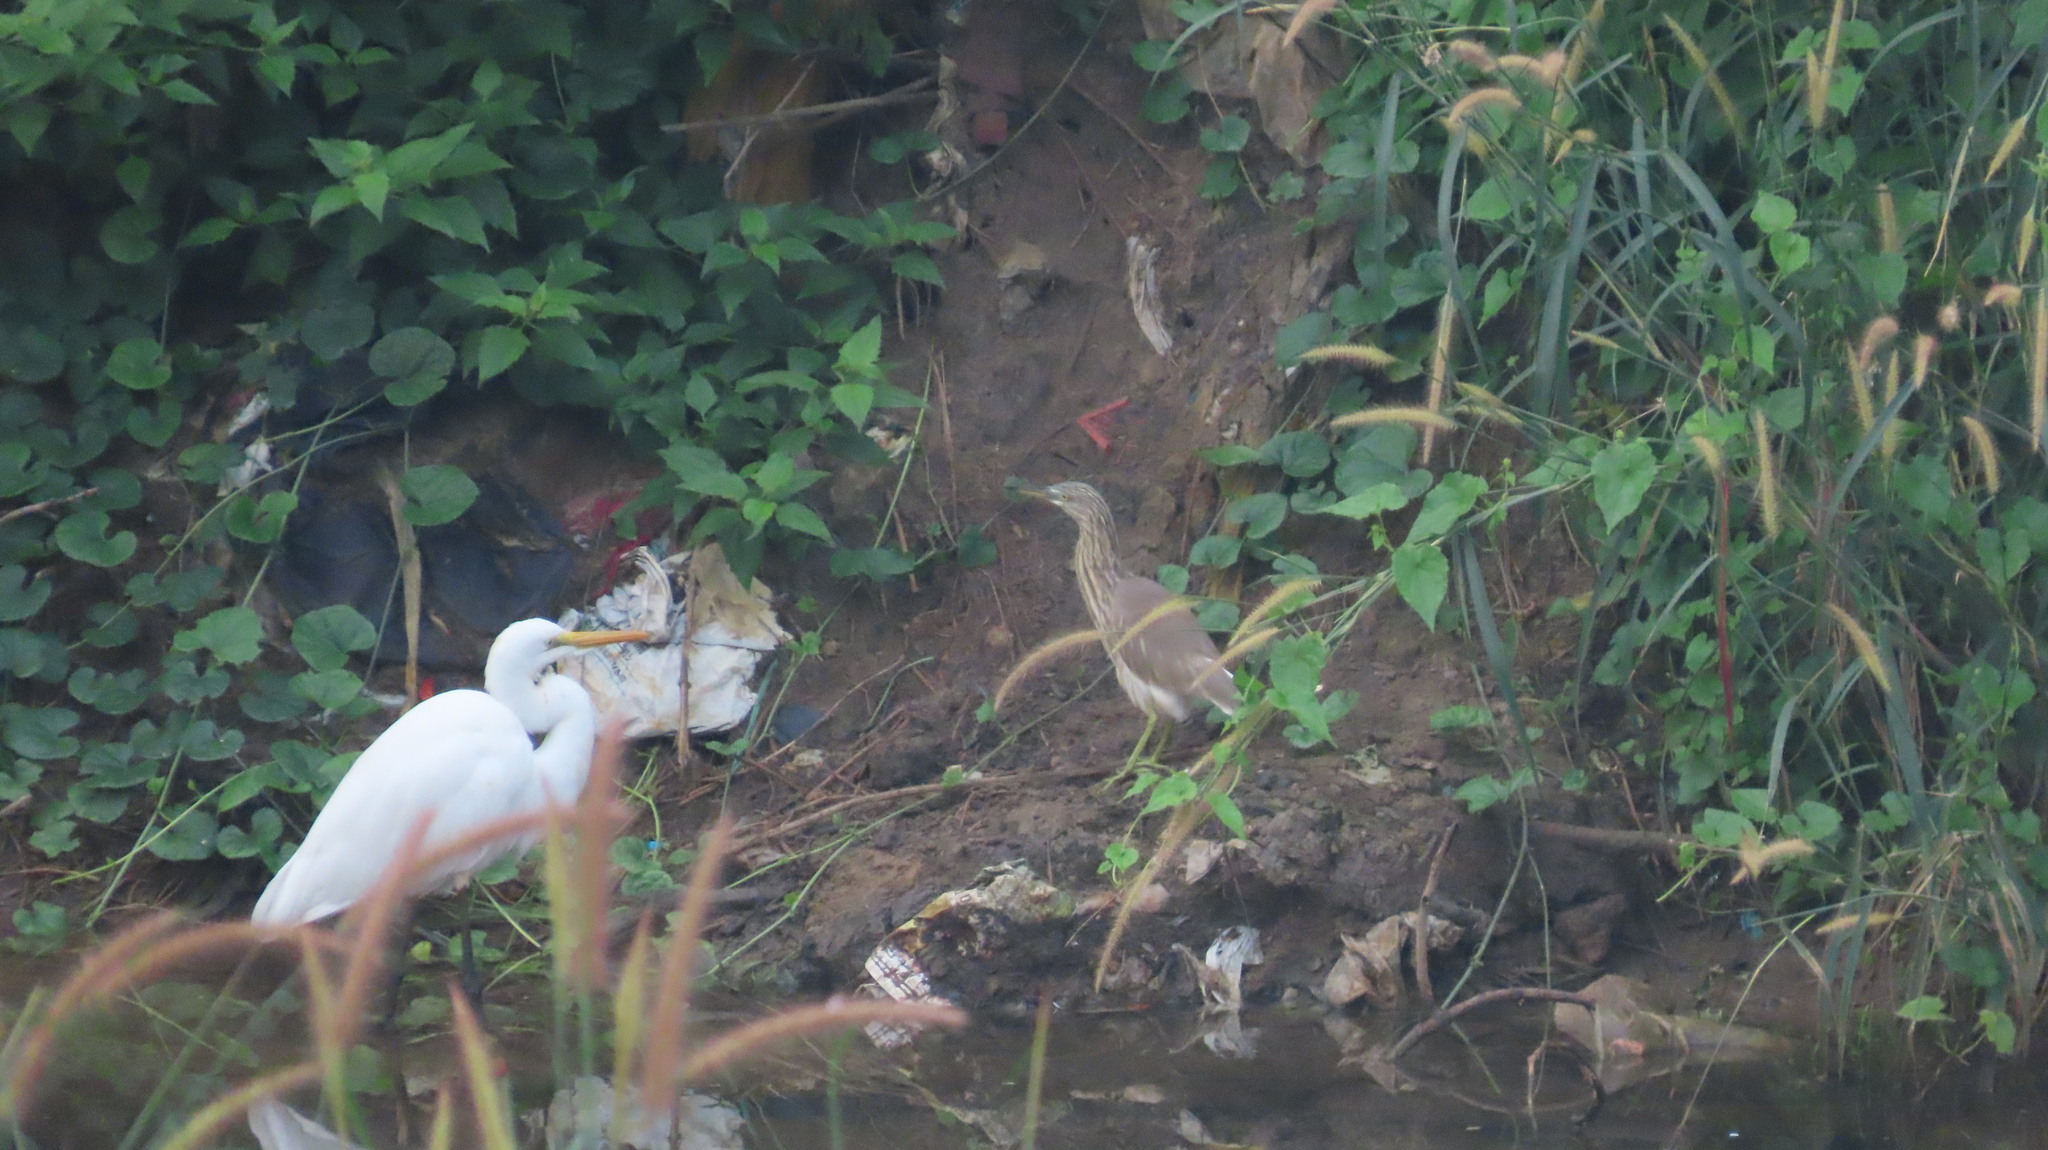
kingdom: Animalia
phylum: Chordata
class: Aves
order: Pelecaniformes
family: Ardeidae
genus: Ardeola
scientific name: Ardeola grayii
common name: Indian pond heron
